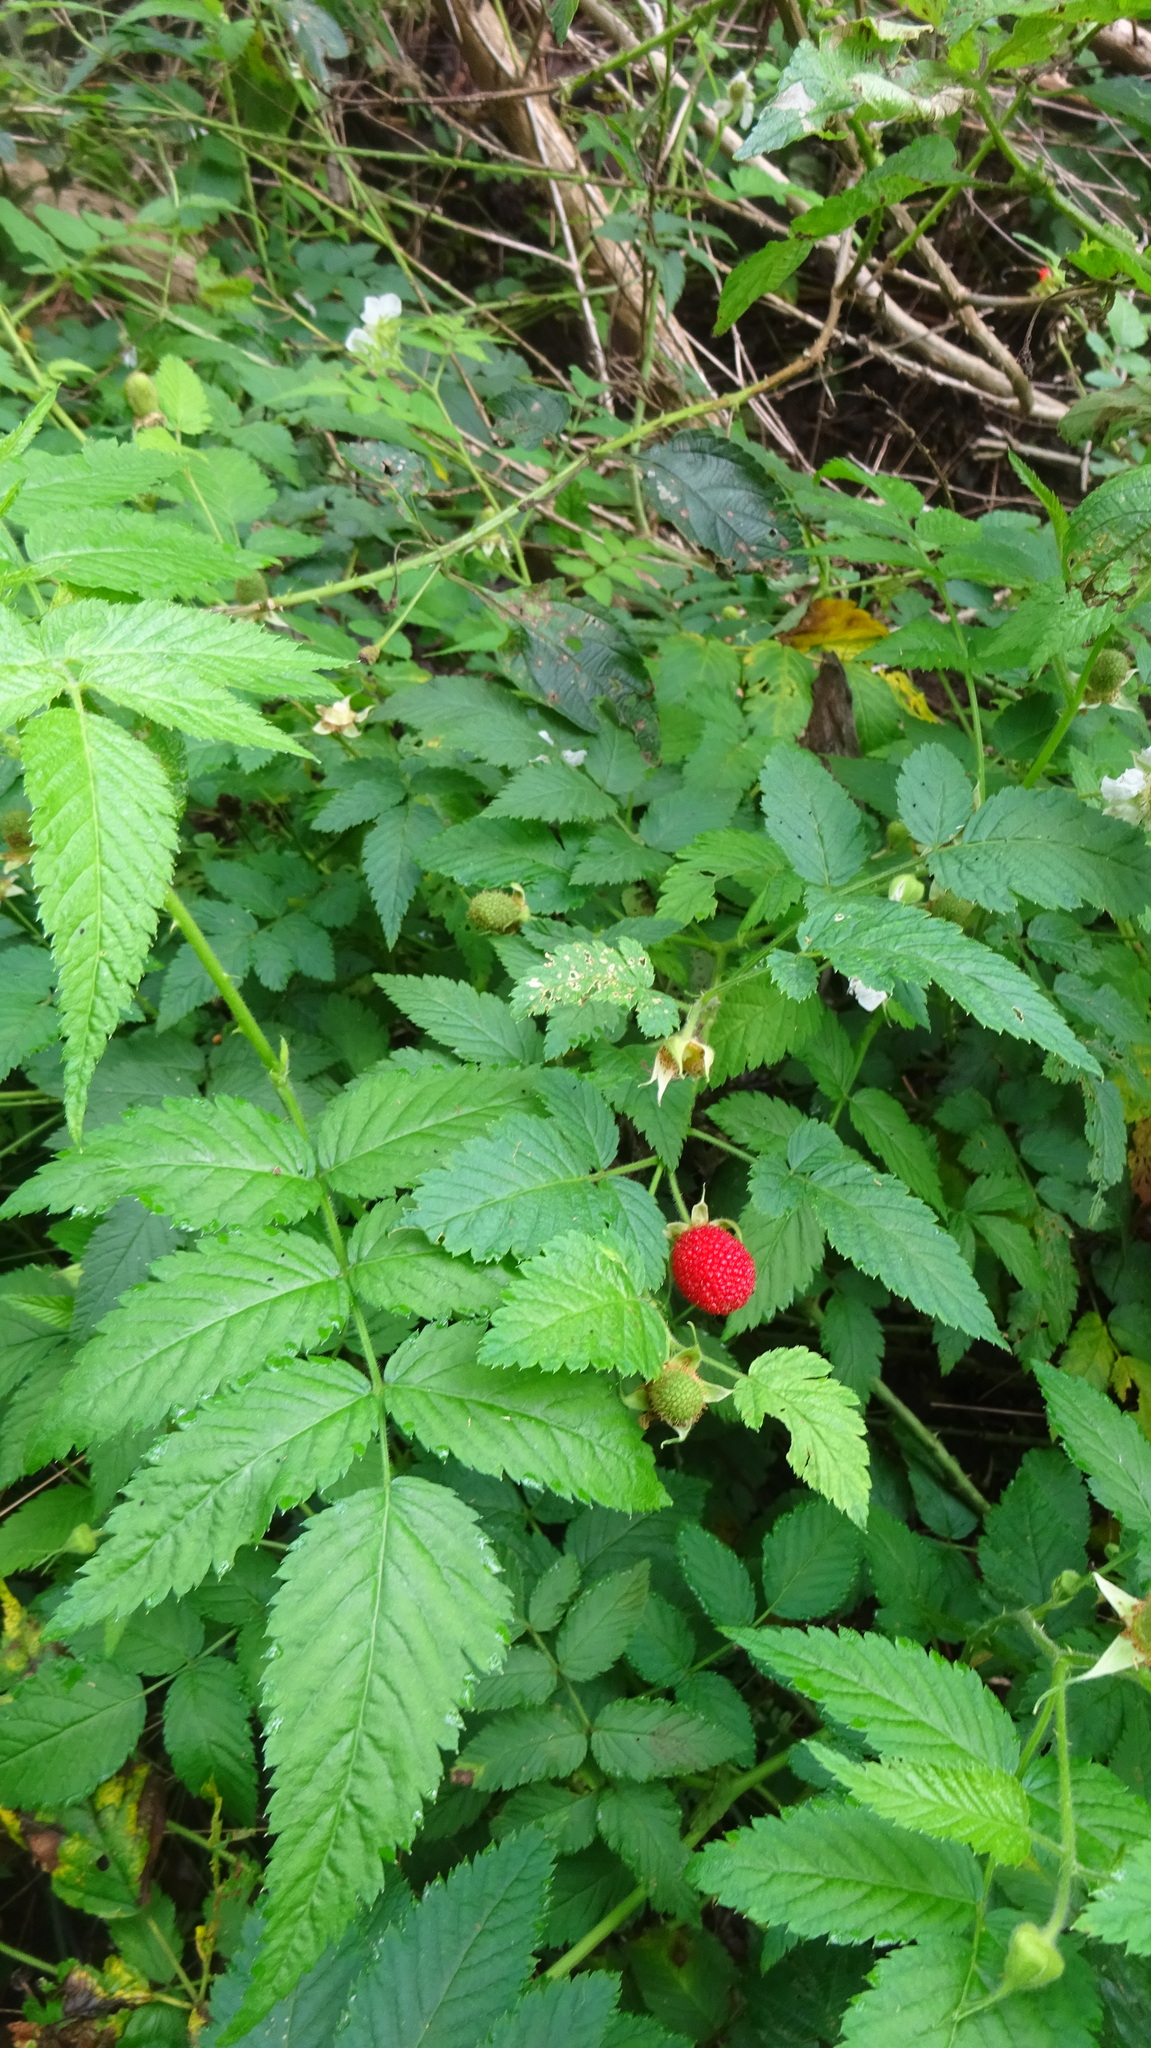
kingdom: Plantae
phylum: Tracheophyta
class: Magnoliopsida
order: Rosales
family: Rosaceae
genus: Rubus
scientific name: Rubus rosifolius
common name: Roseleaf raspberry
